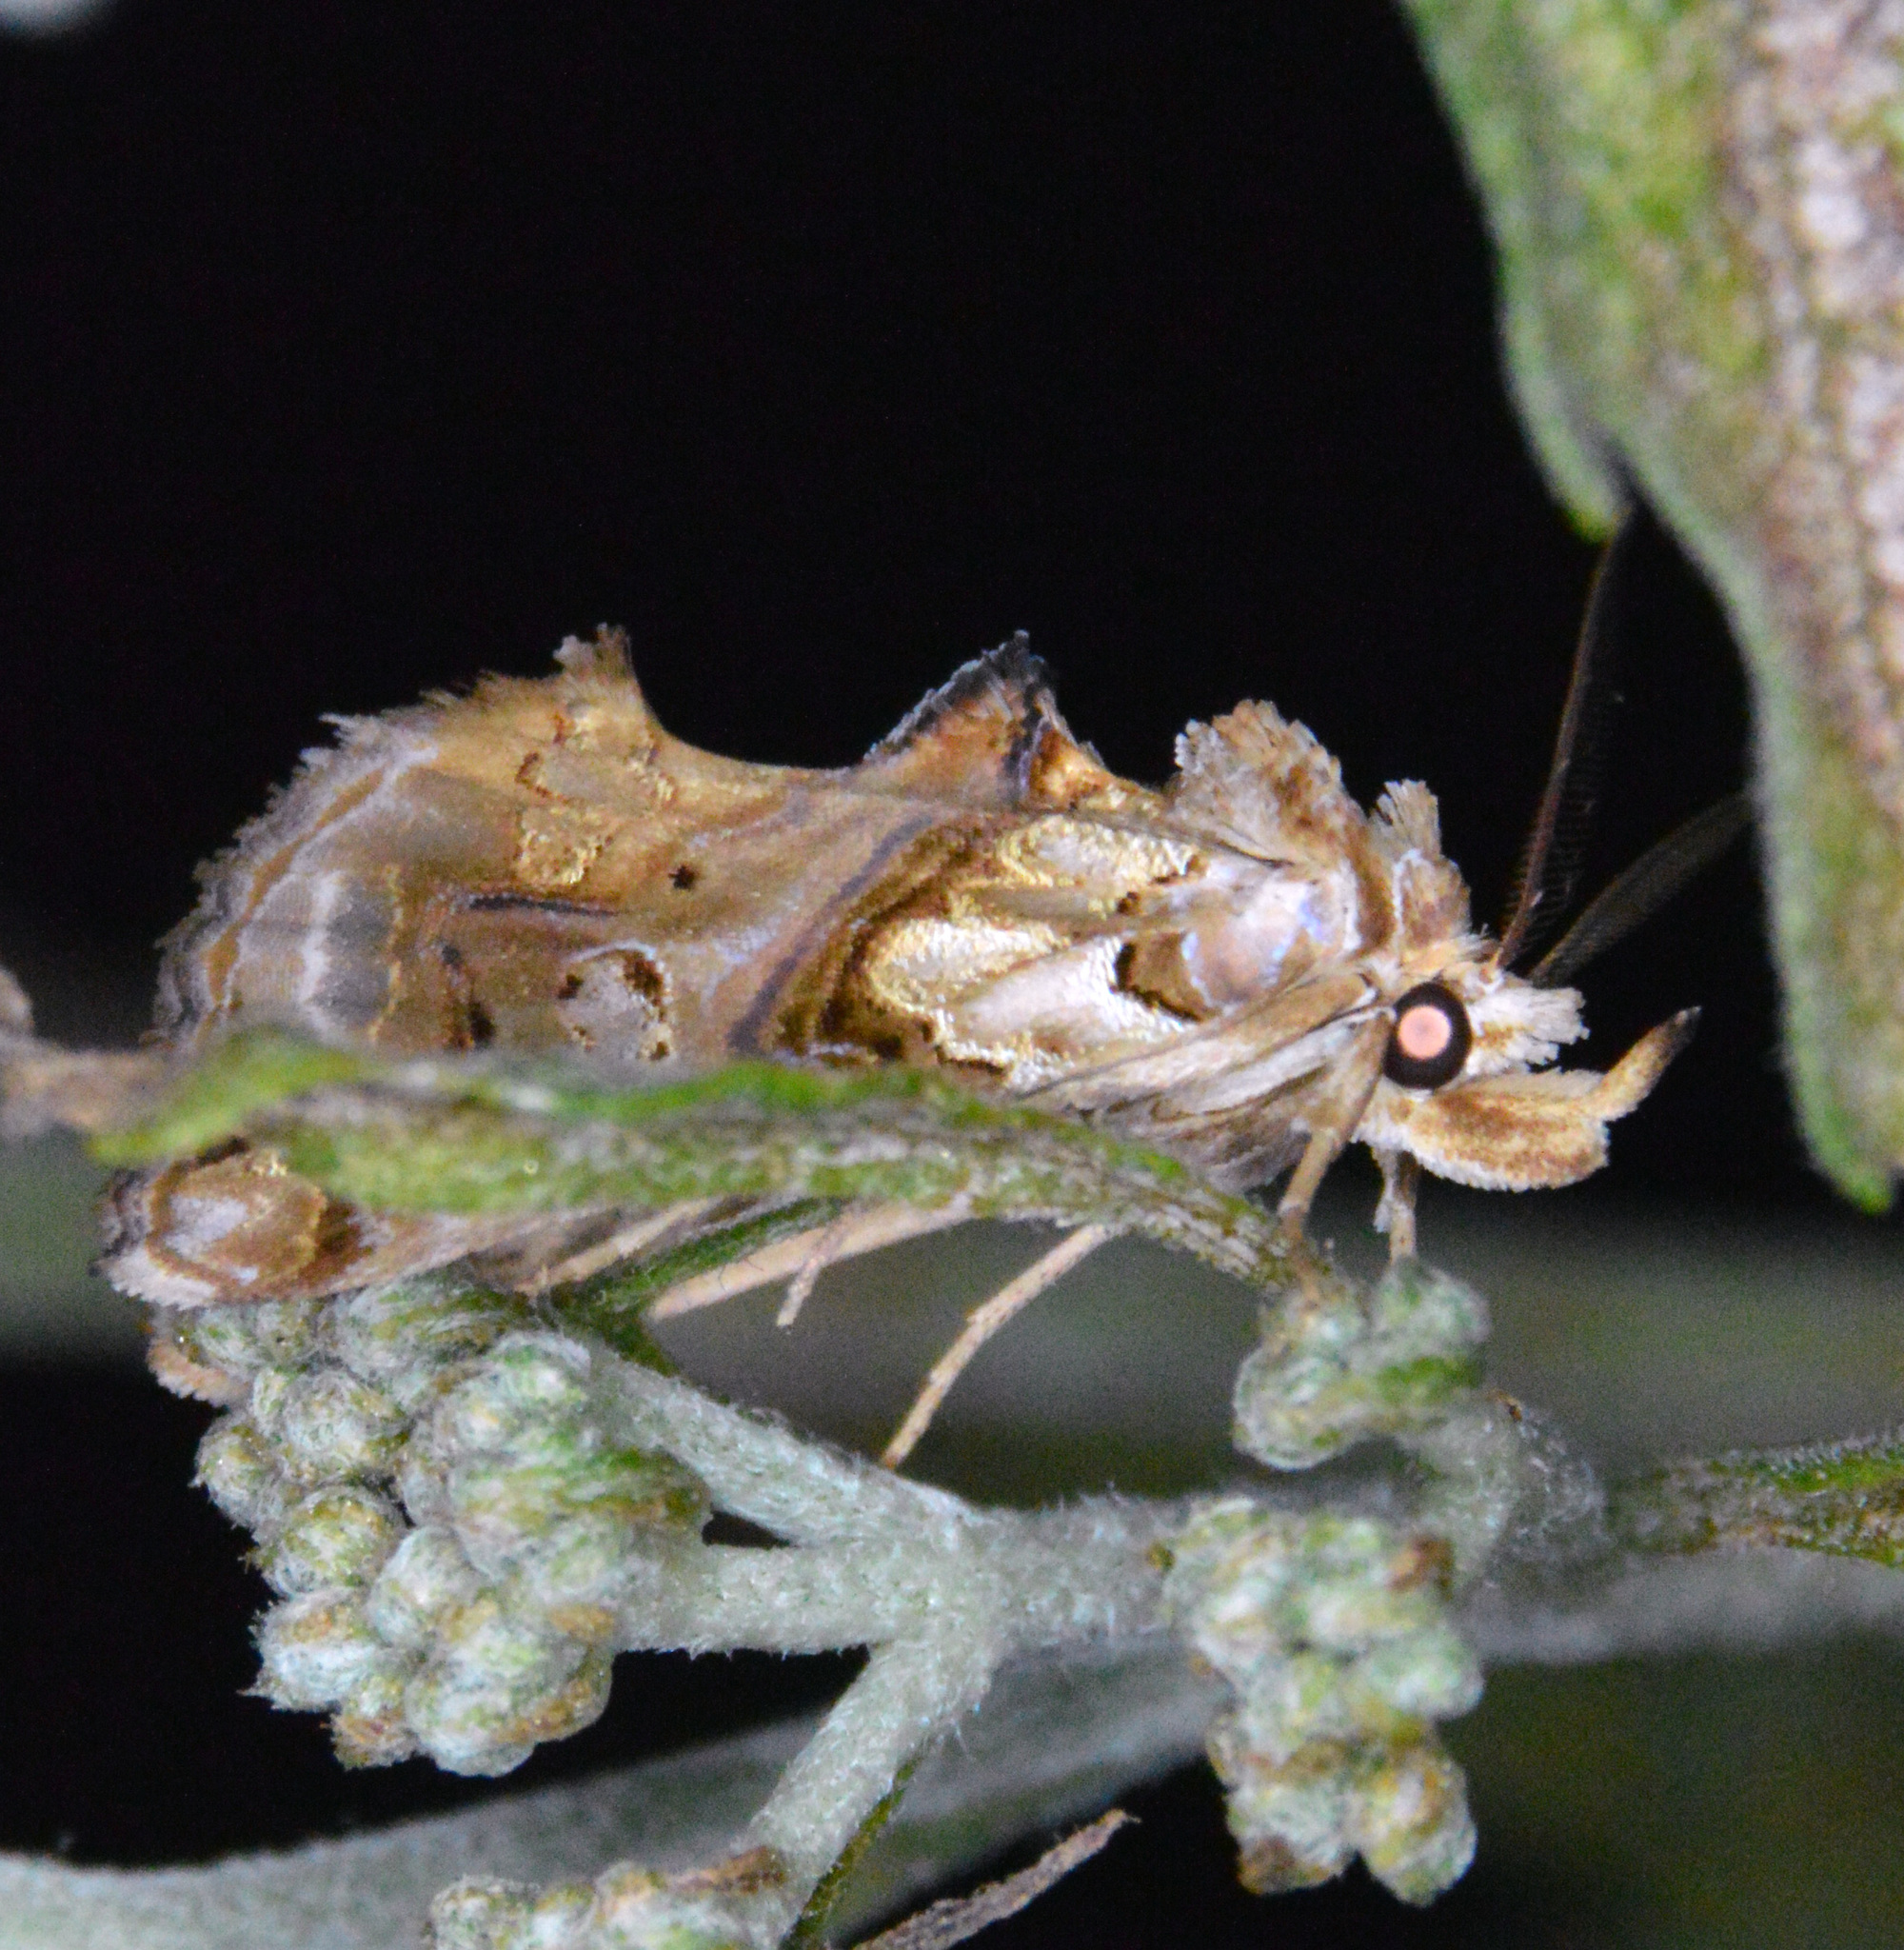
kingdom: Animalia
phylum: Arthropoda
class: Insecta
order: Lepidoptera
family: Erebidae
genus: Plusiodonta
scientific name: Plusiodonta compressipalpis
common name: Moonseed moth
